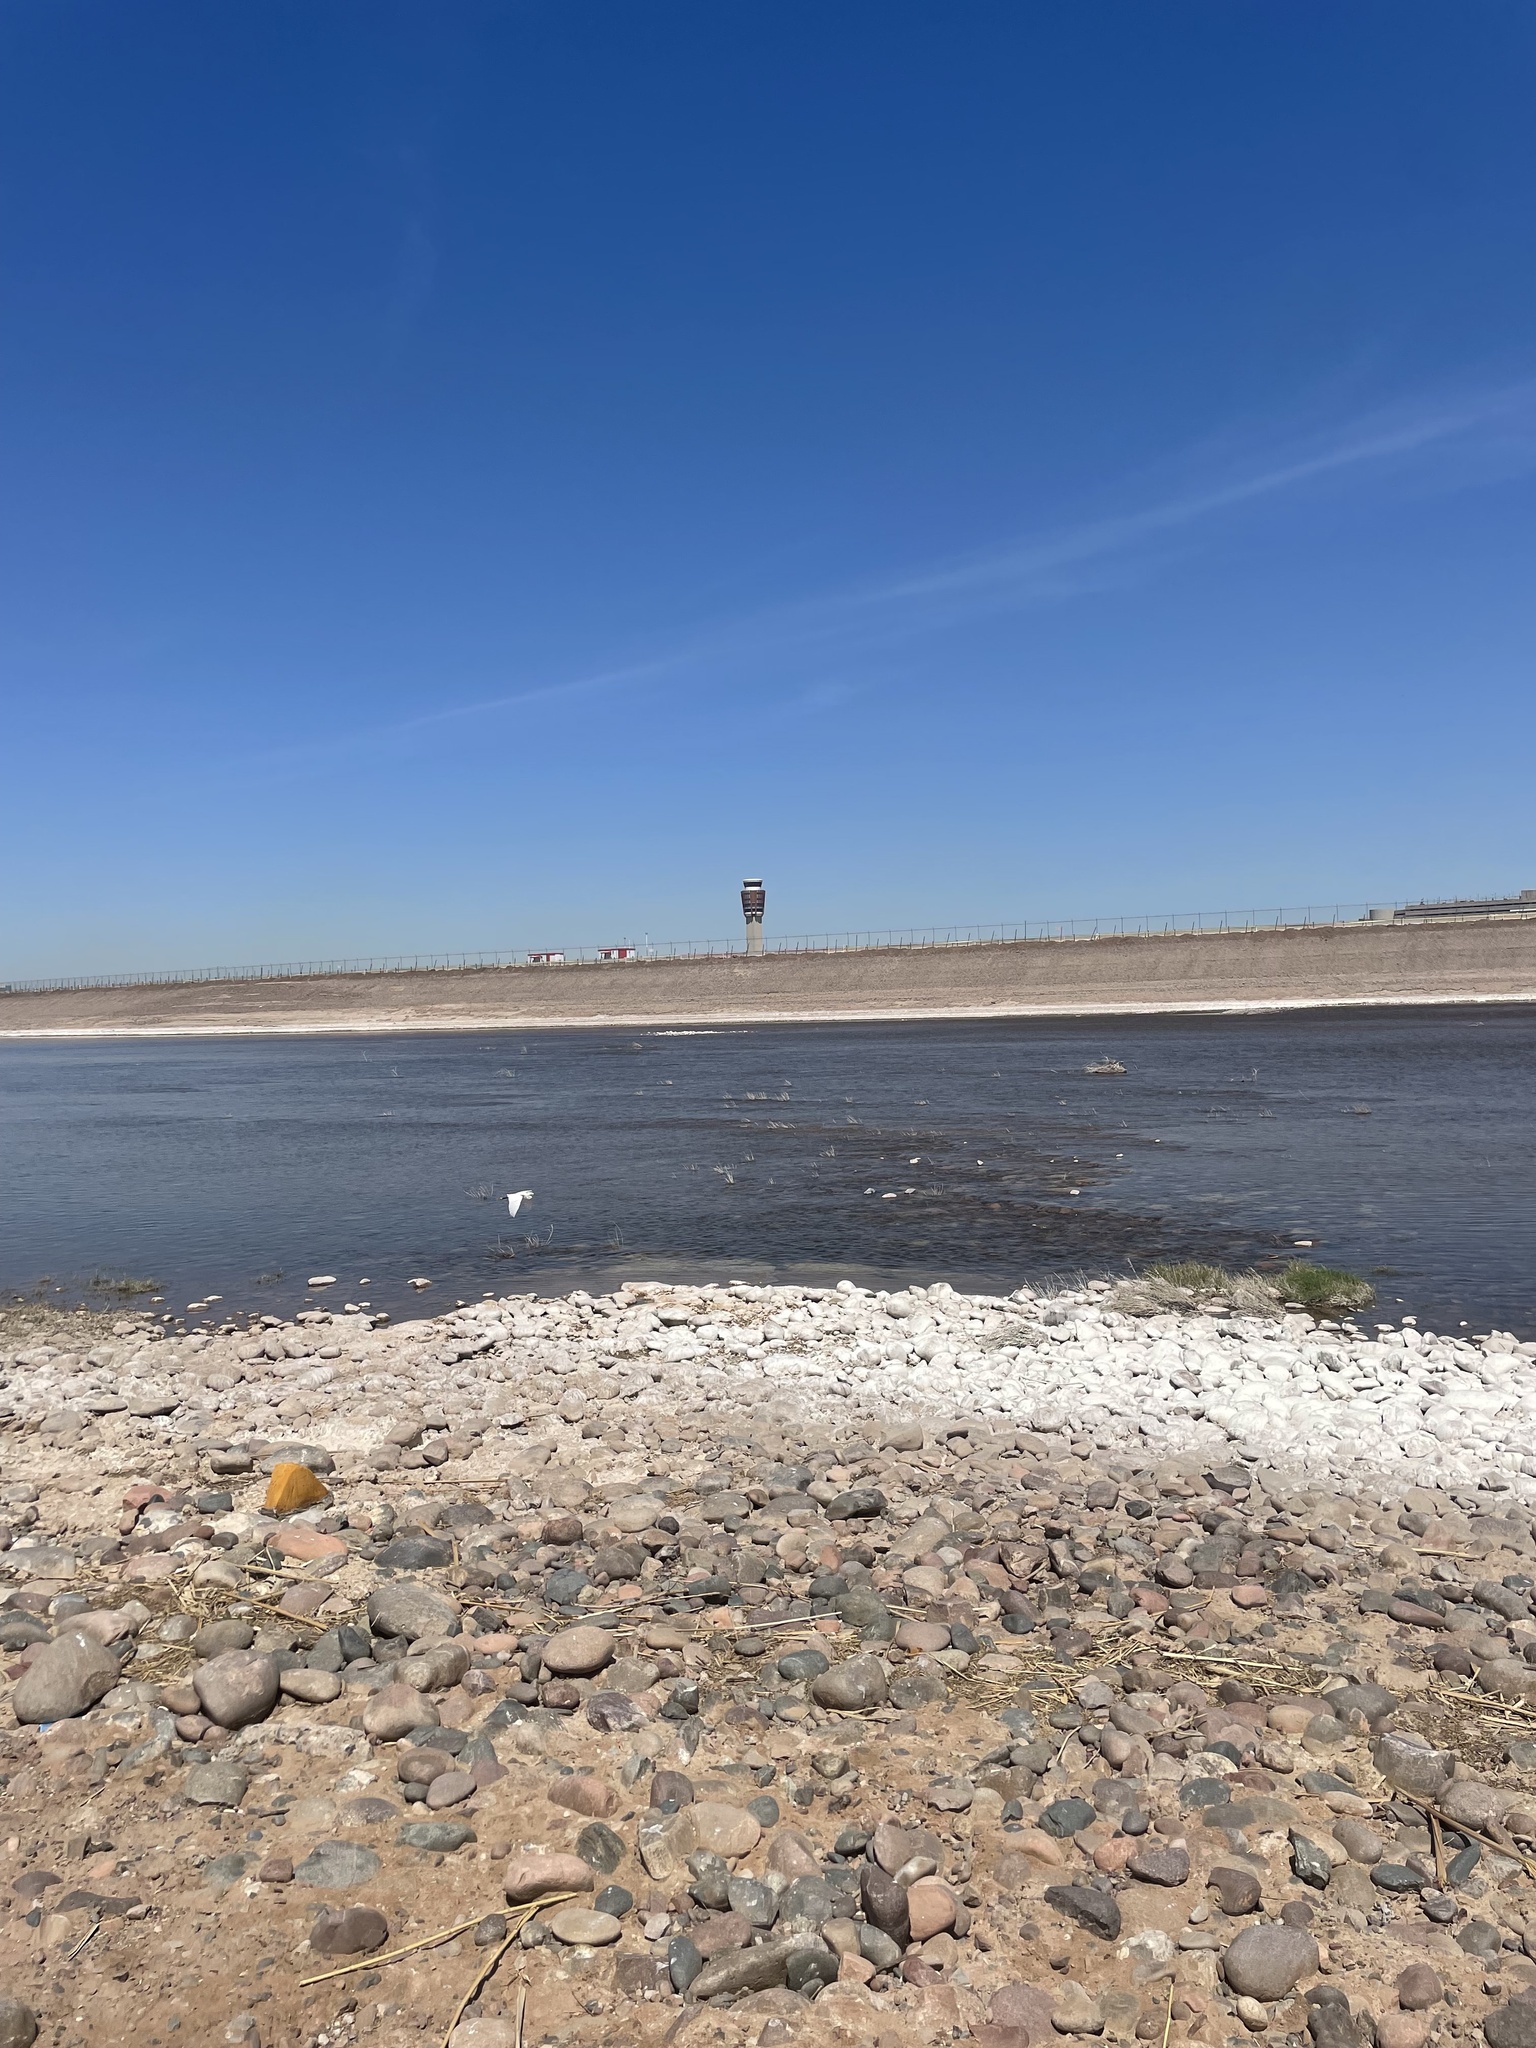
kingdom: Animalia
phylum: Chordata
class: Aves
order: Pelecaniformes
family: Ardeidae
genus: Egretta
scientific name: Egretta thula
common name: Snowy egret
